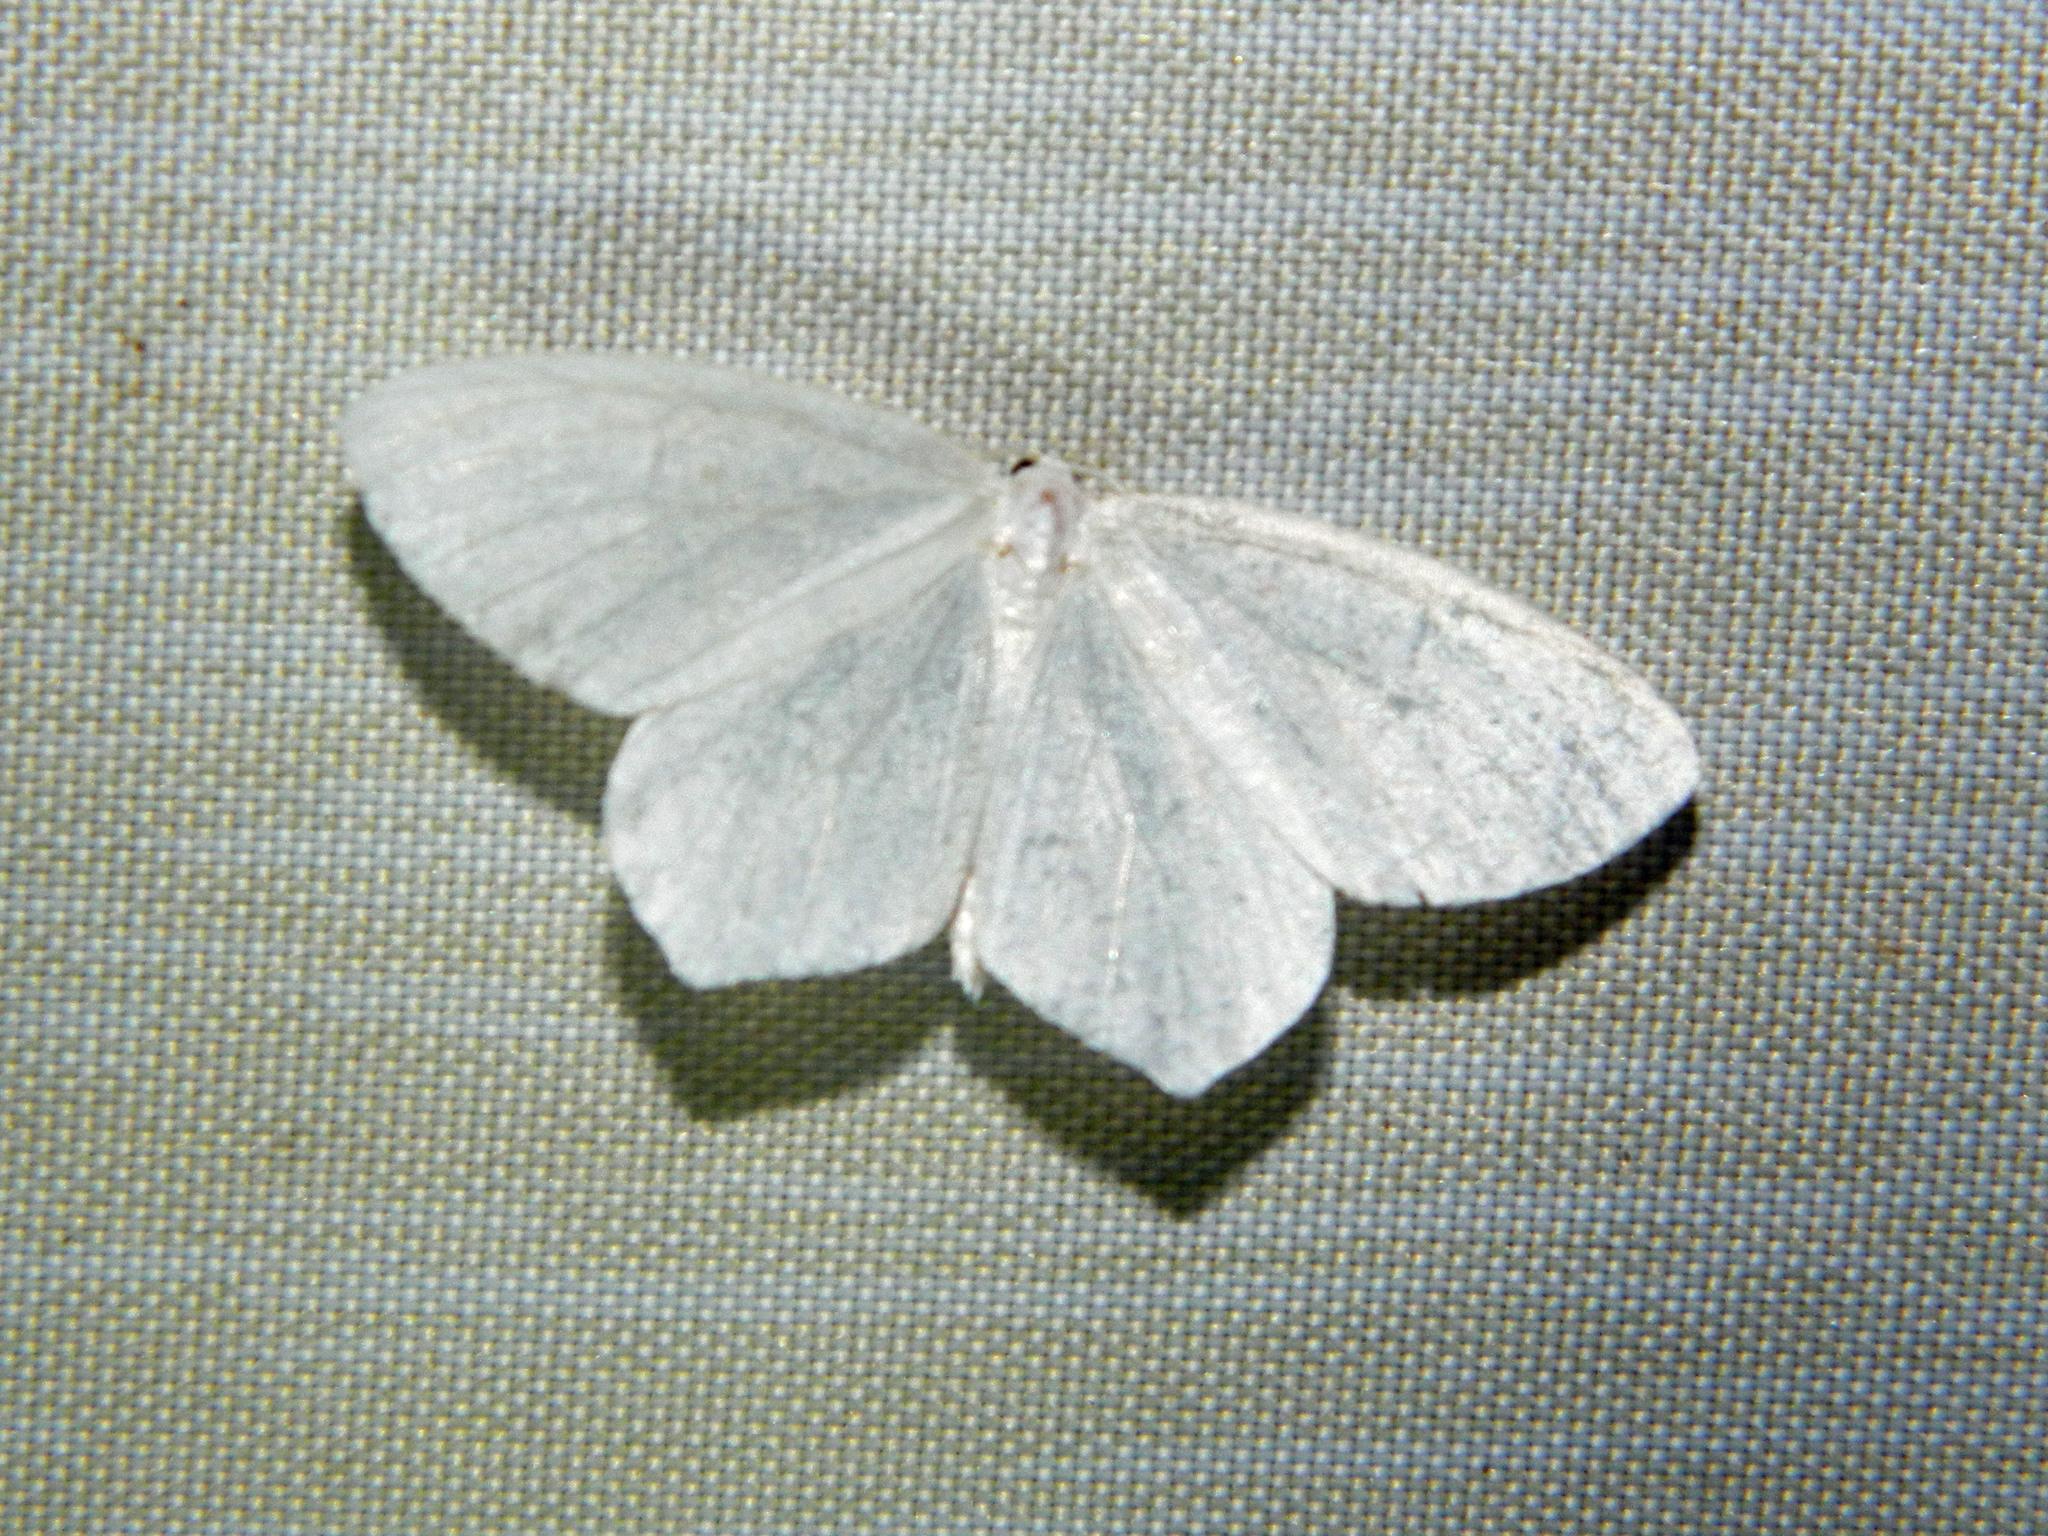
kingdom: Animalia
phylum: Arthropoda
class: Insecta
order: Lepidoptera
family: Geometridae
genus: Eugonobapta
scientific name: Eugonobapta nivosaria
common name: Snowy geometer
